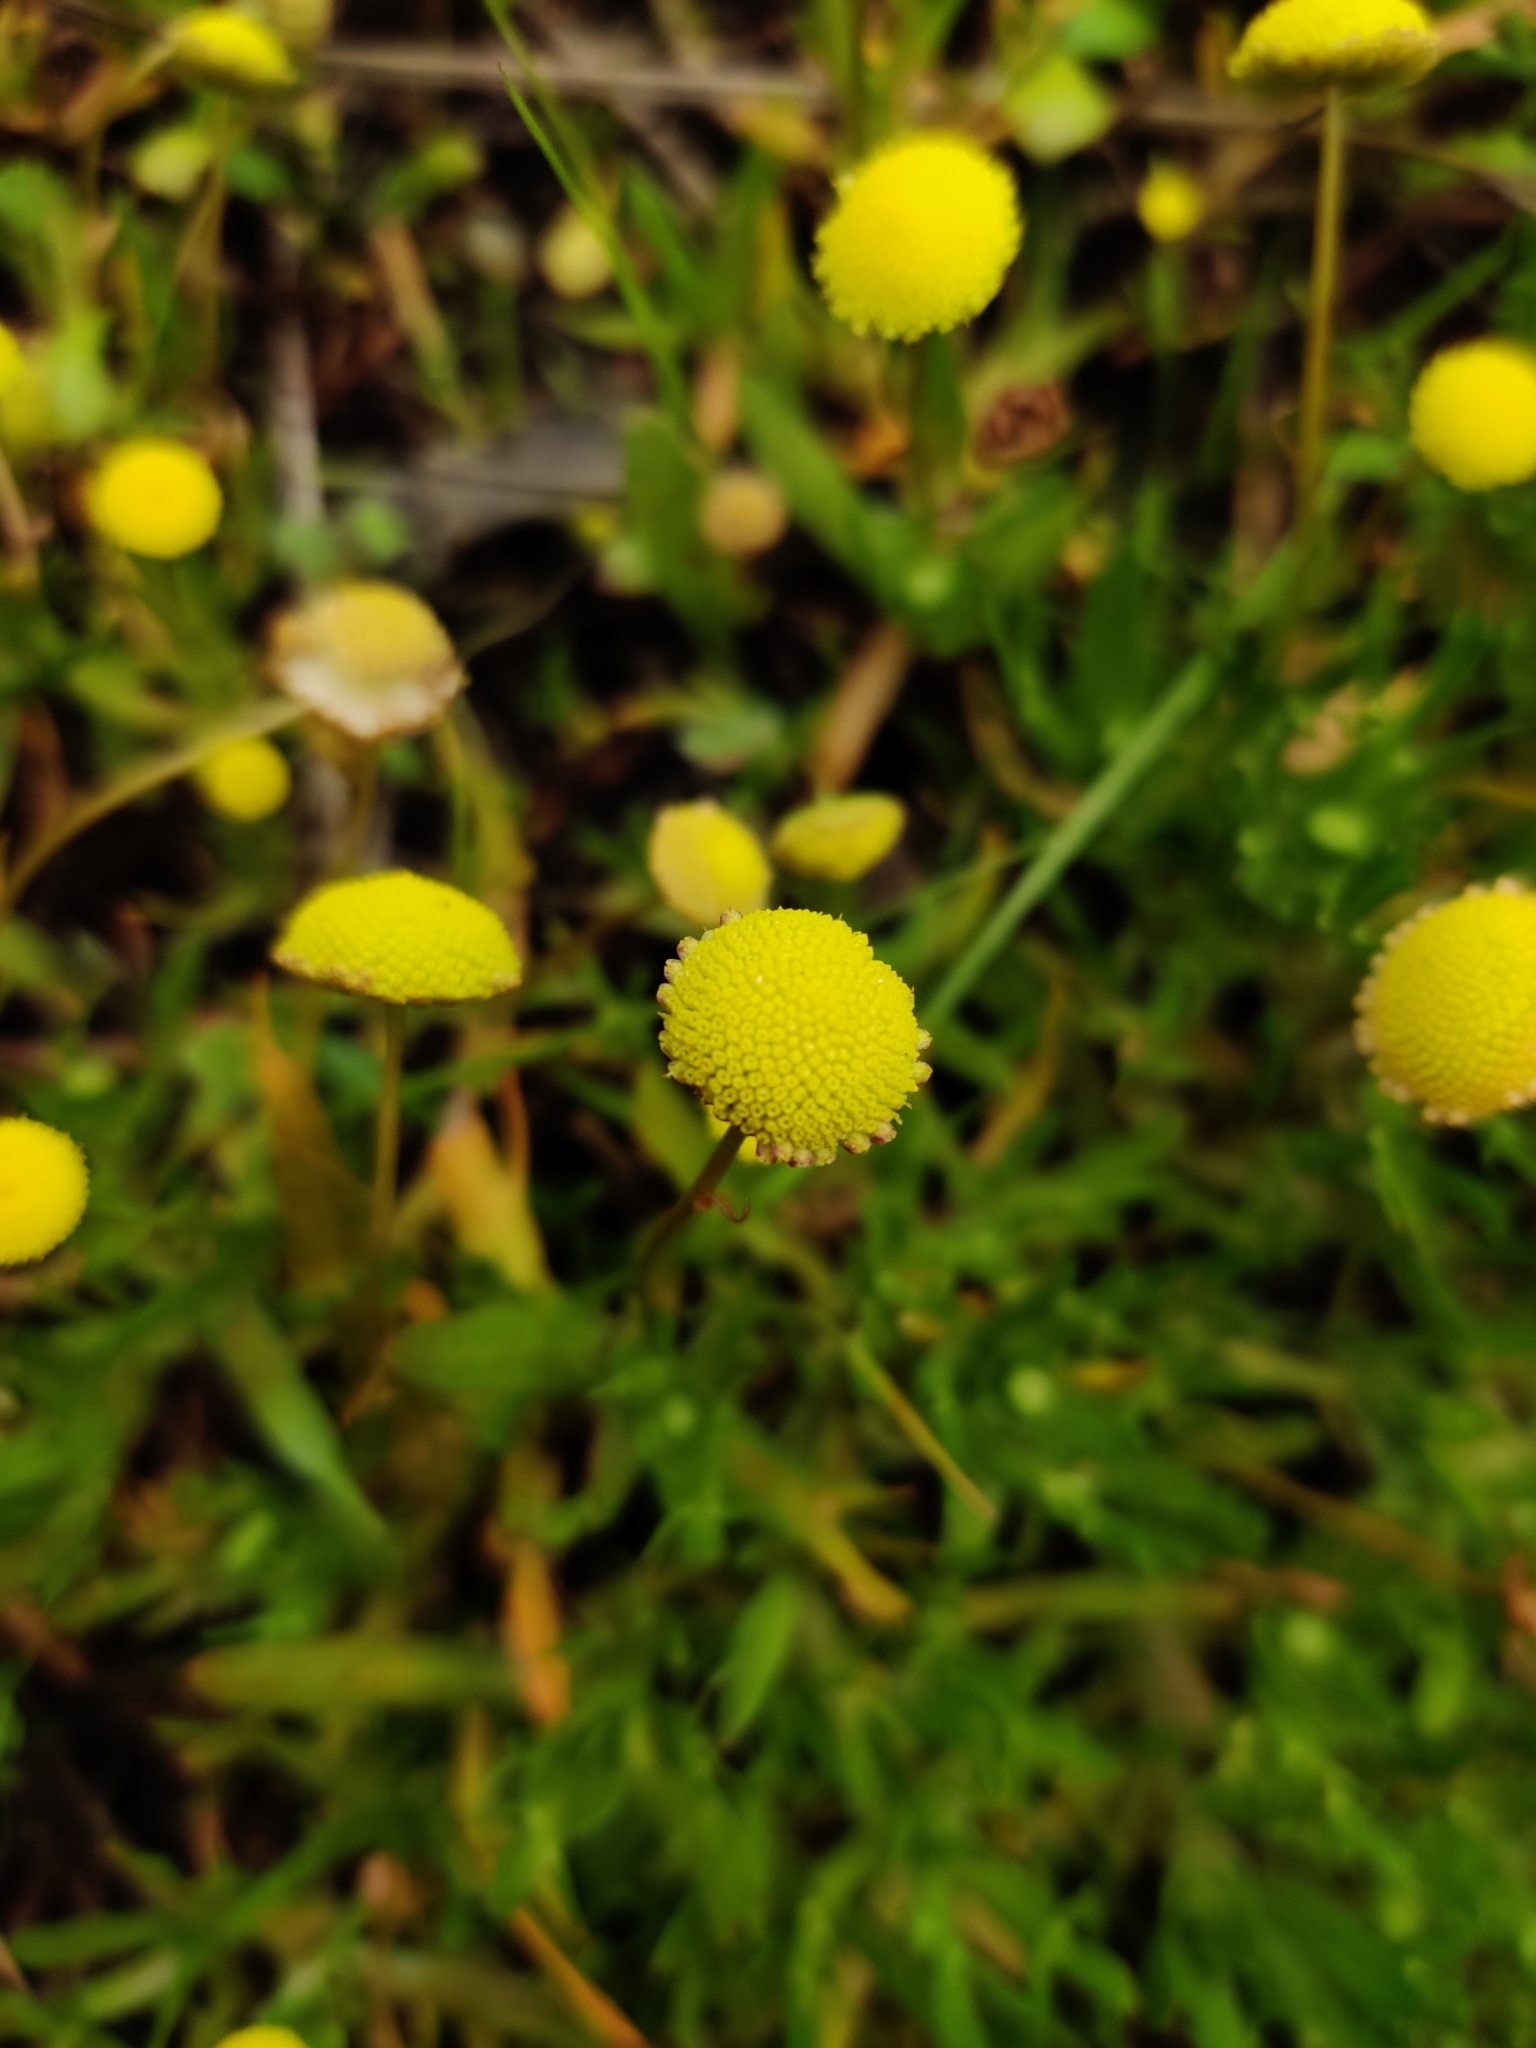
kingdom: Plantae
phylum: Tracheophyta
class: Magnoliopsida
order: Asterales
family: Asteraceae
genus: Cotula
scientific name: Cotula coronopifolia
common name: Buttonweed
